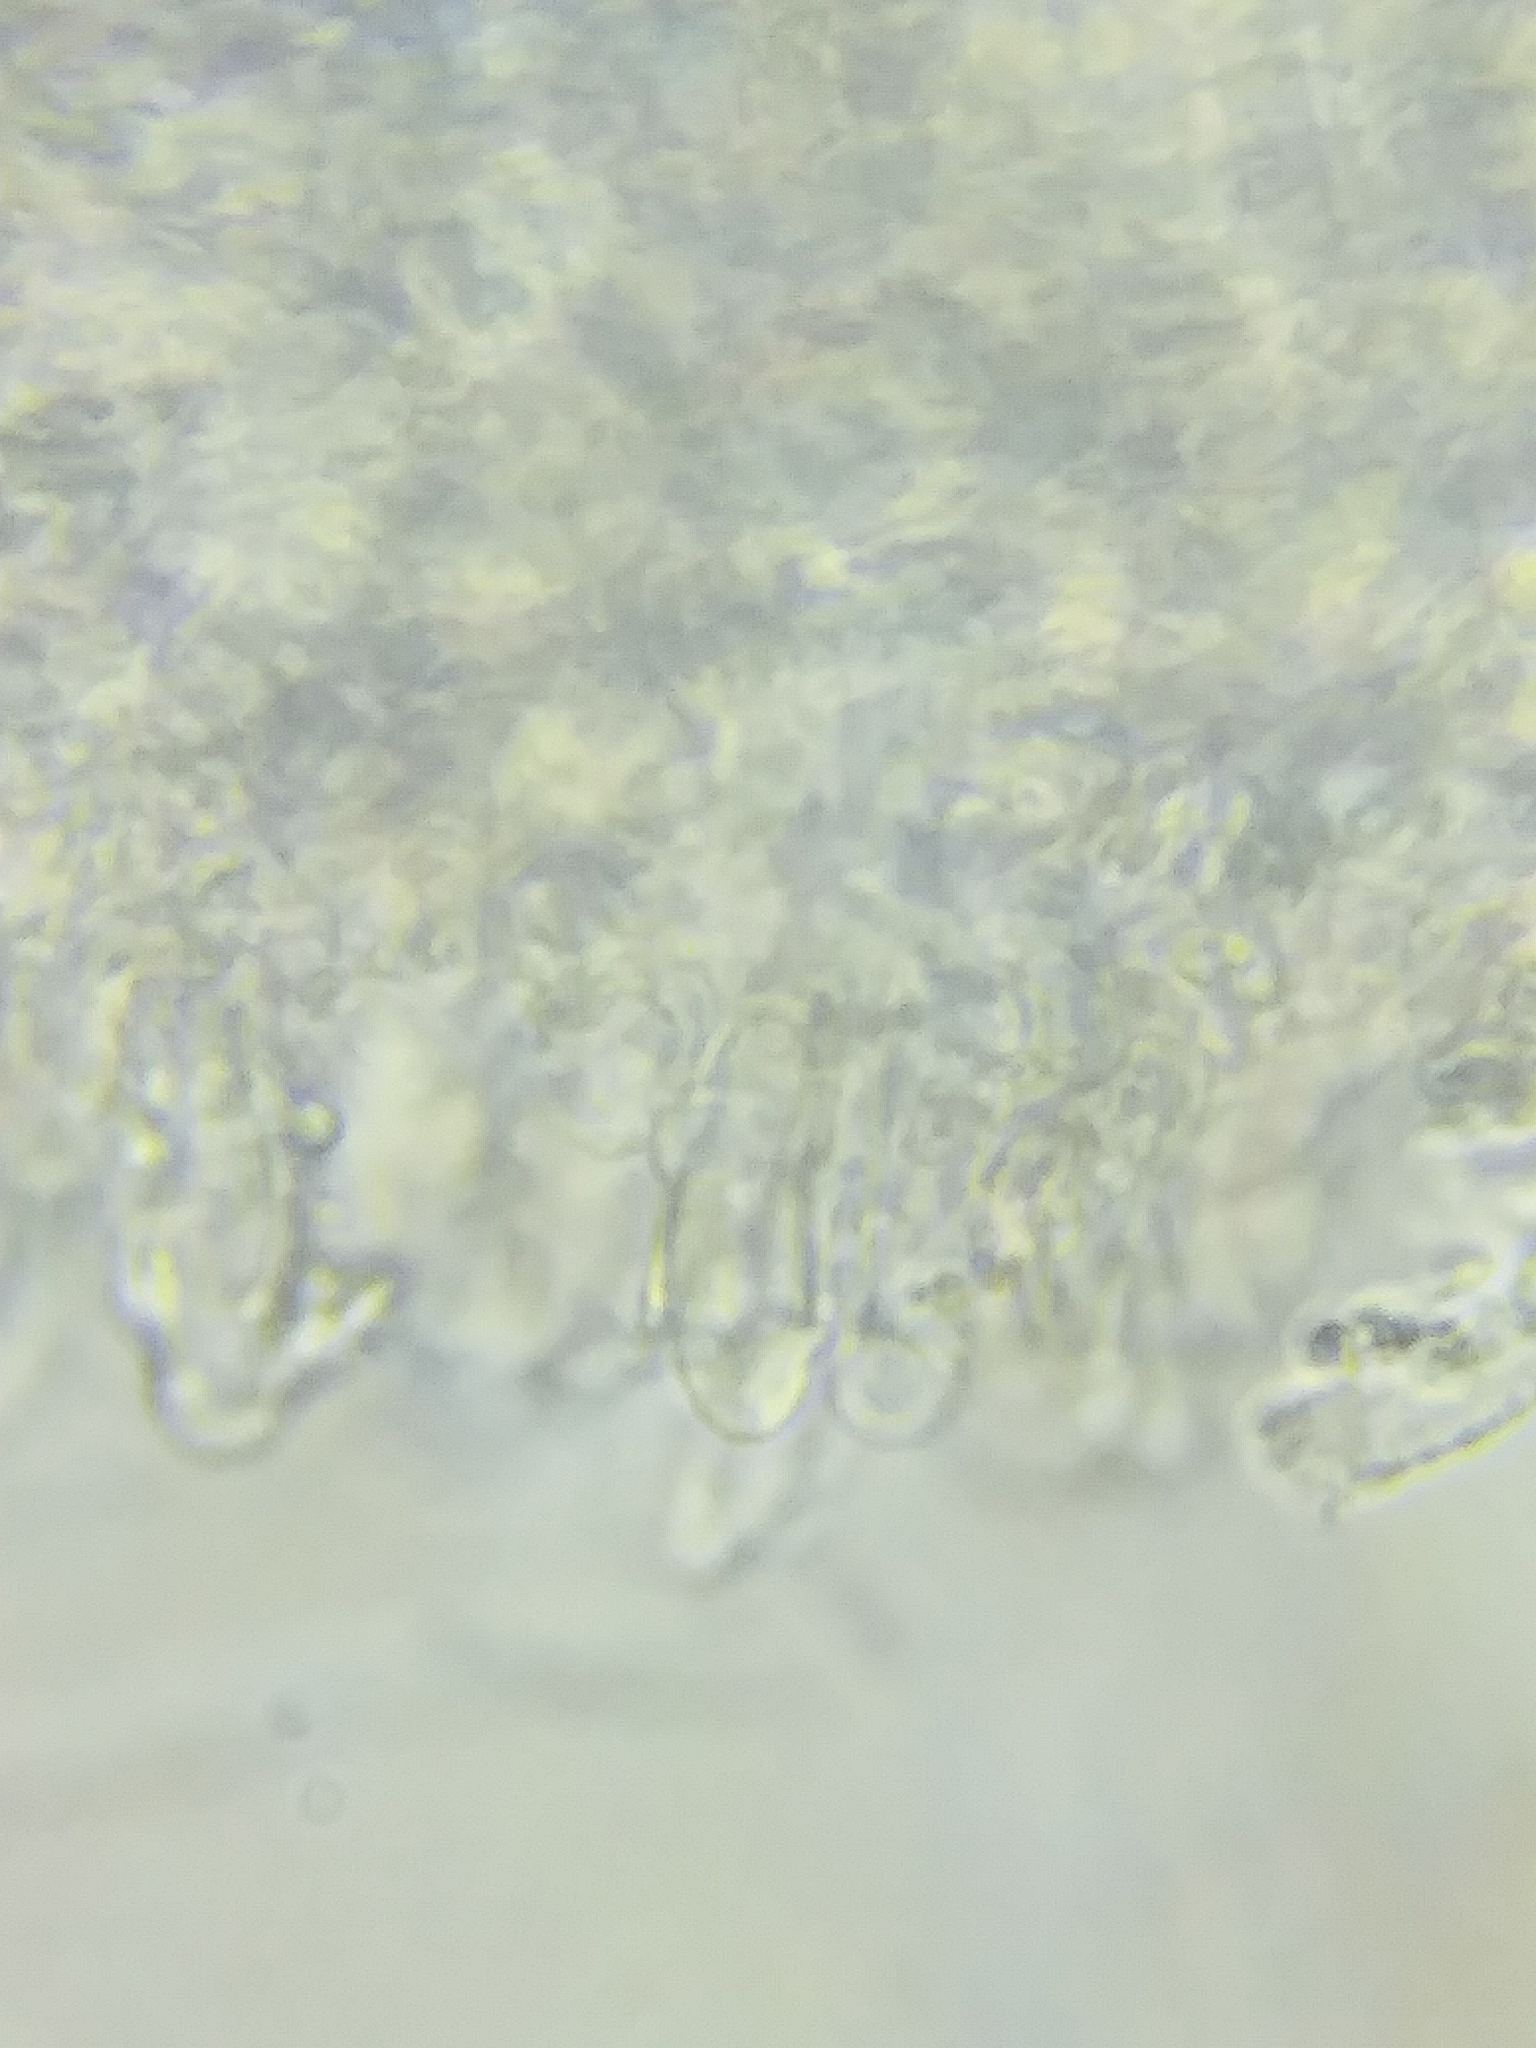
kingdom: Fungi
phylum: Basidiomycota
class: Agaricomycetes
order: Polyporales
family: Polyporaceae
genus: Cyanosporus
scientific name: Cyanosporus livens
